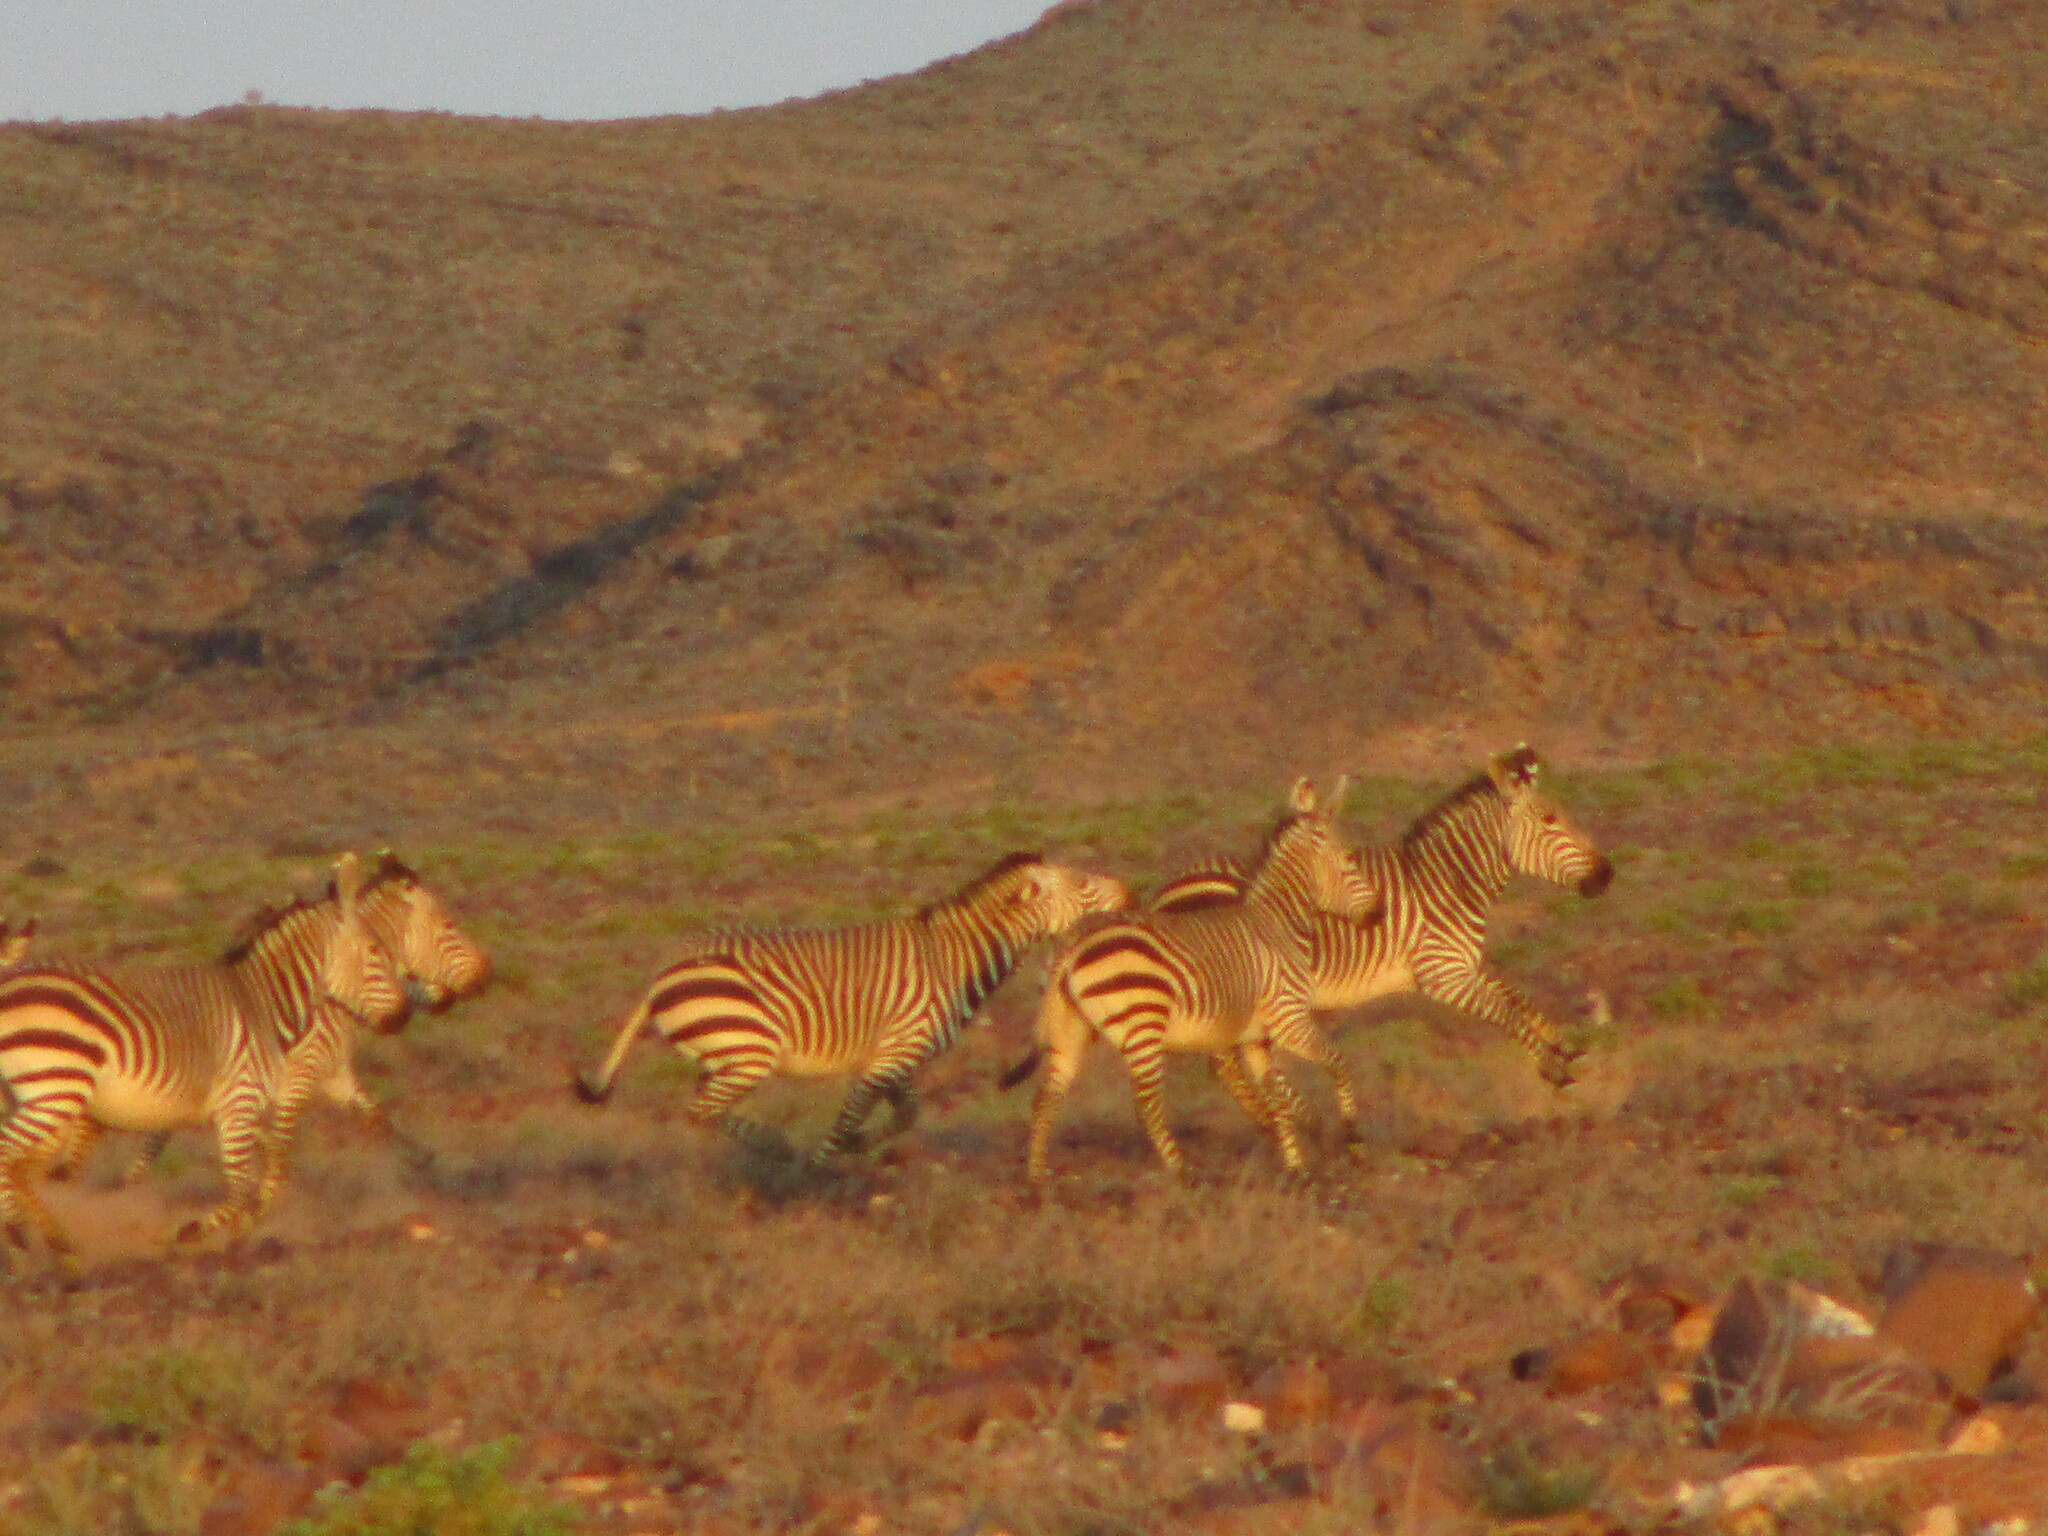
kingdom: Animalia
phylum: Chordata
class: Mammalia
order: Perissodactyla
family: Equidae
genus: Equus
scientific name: Equus hartmannae
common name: Hartmann's mountain zebra
